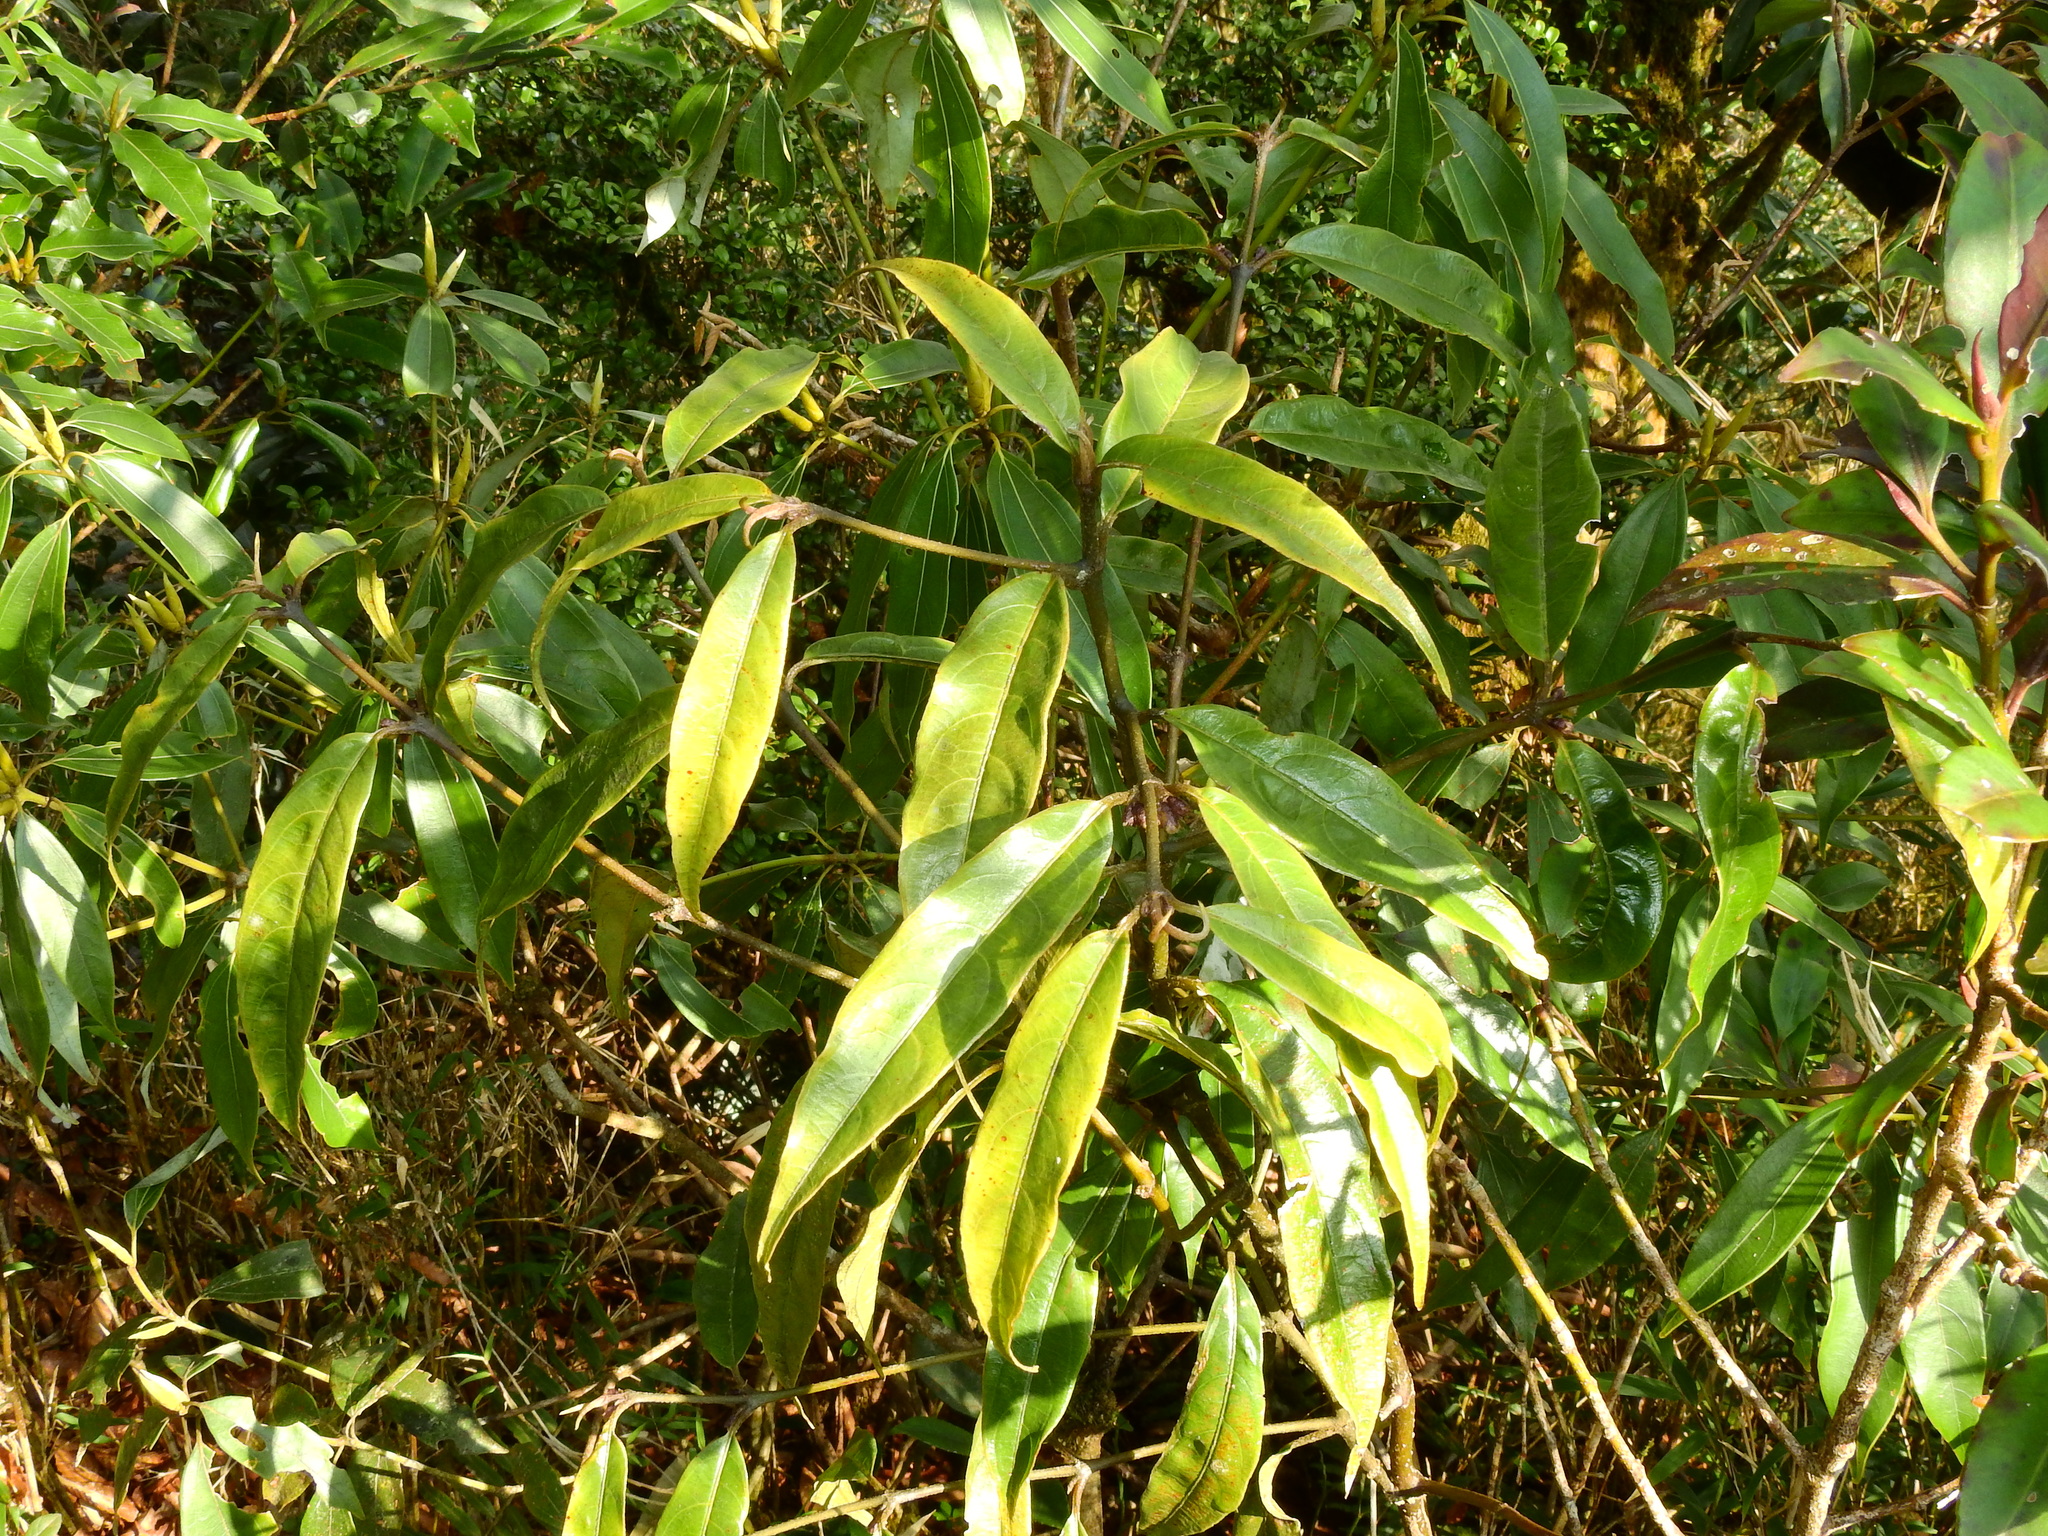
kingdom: Plantae
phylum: Tracheophyta
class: Magnoliopsida
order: Gentianales
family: Rubiaceae
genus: Lasianthus
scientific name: Lasianthus japonicus
